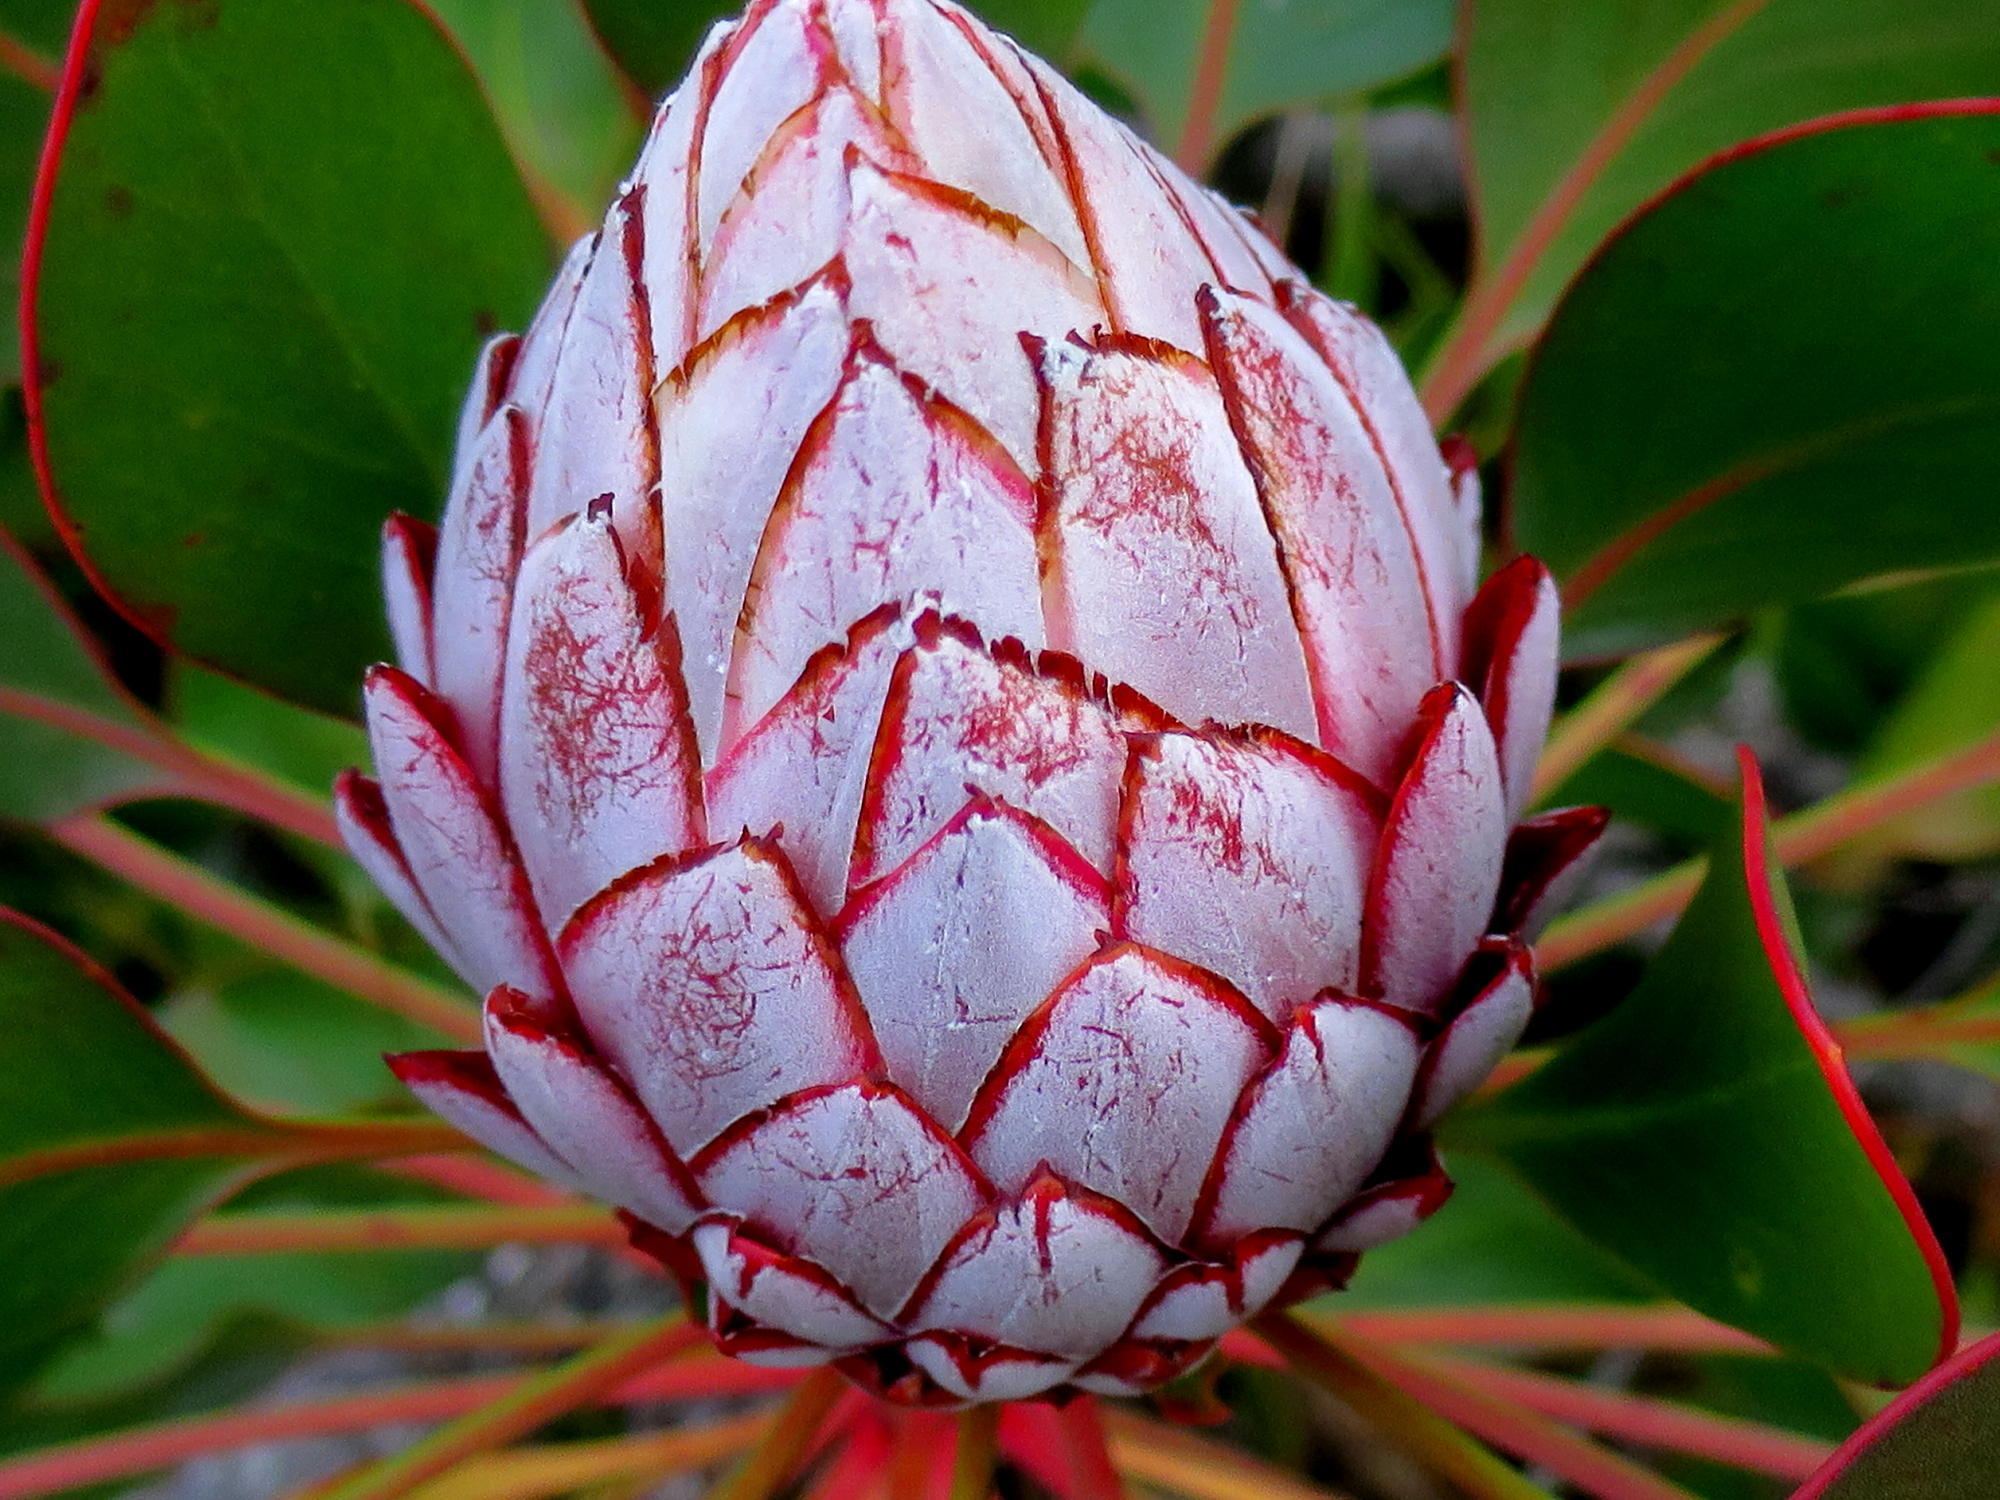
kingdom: Plantae
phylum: Tracheophyta
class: Magnoliopsida
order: Proteales
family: Proteaceae
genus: Protea
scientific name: Protea cynaroides
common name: King protea
